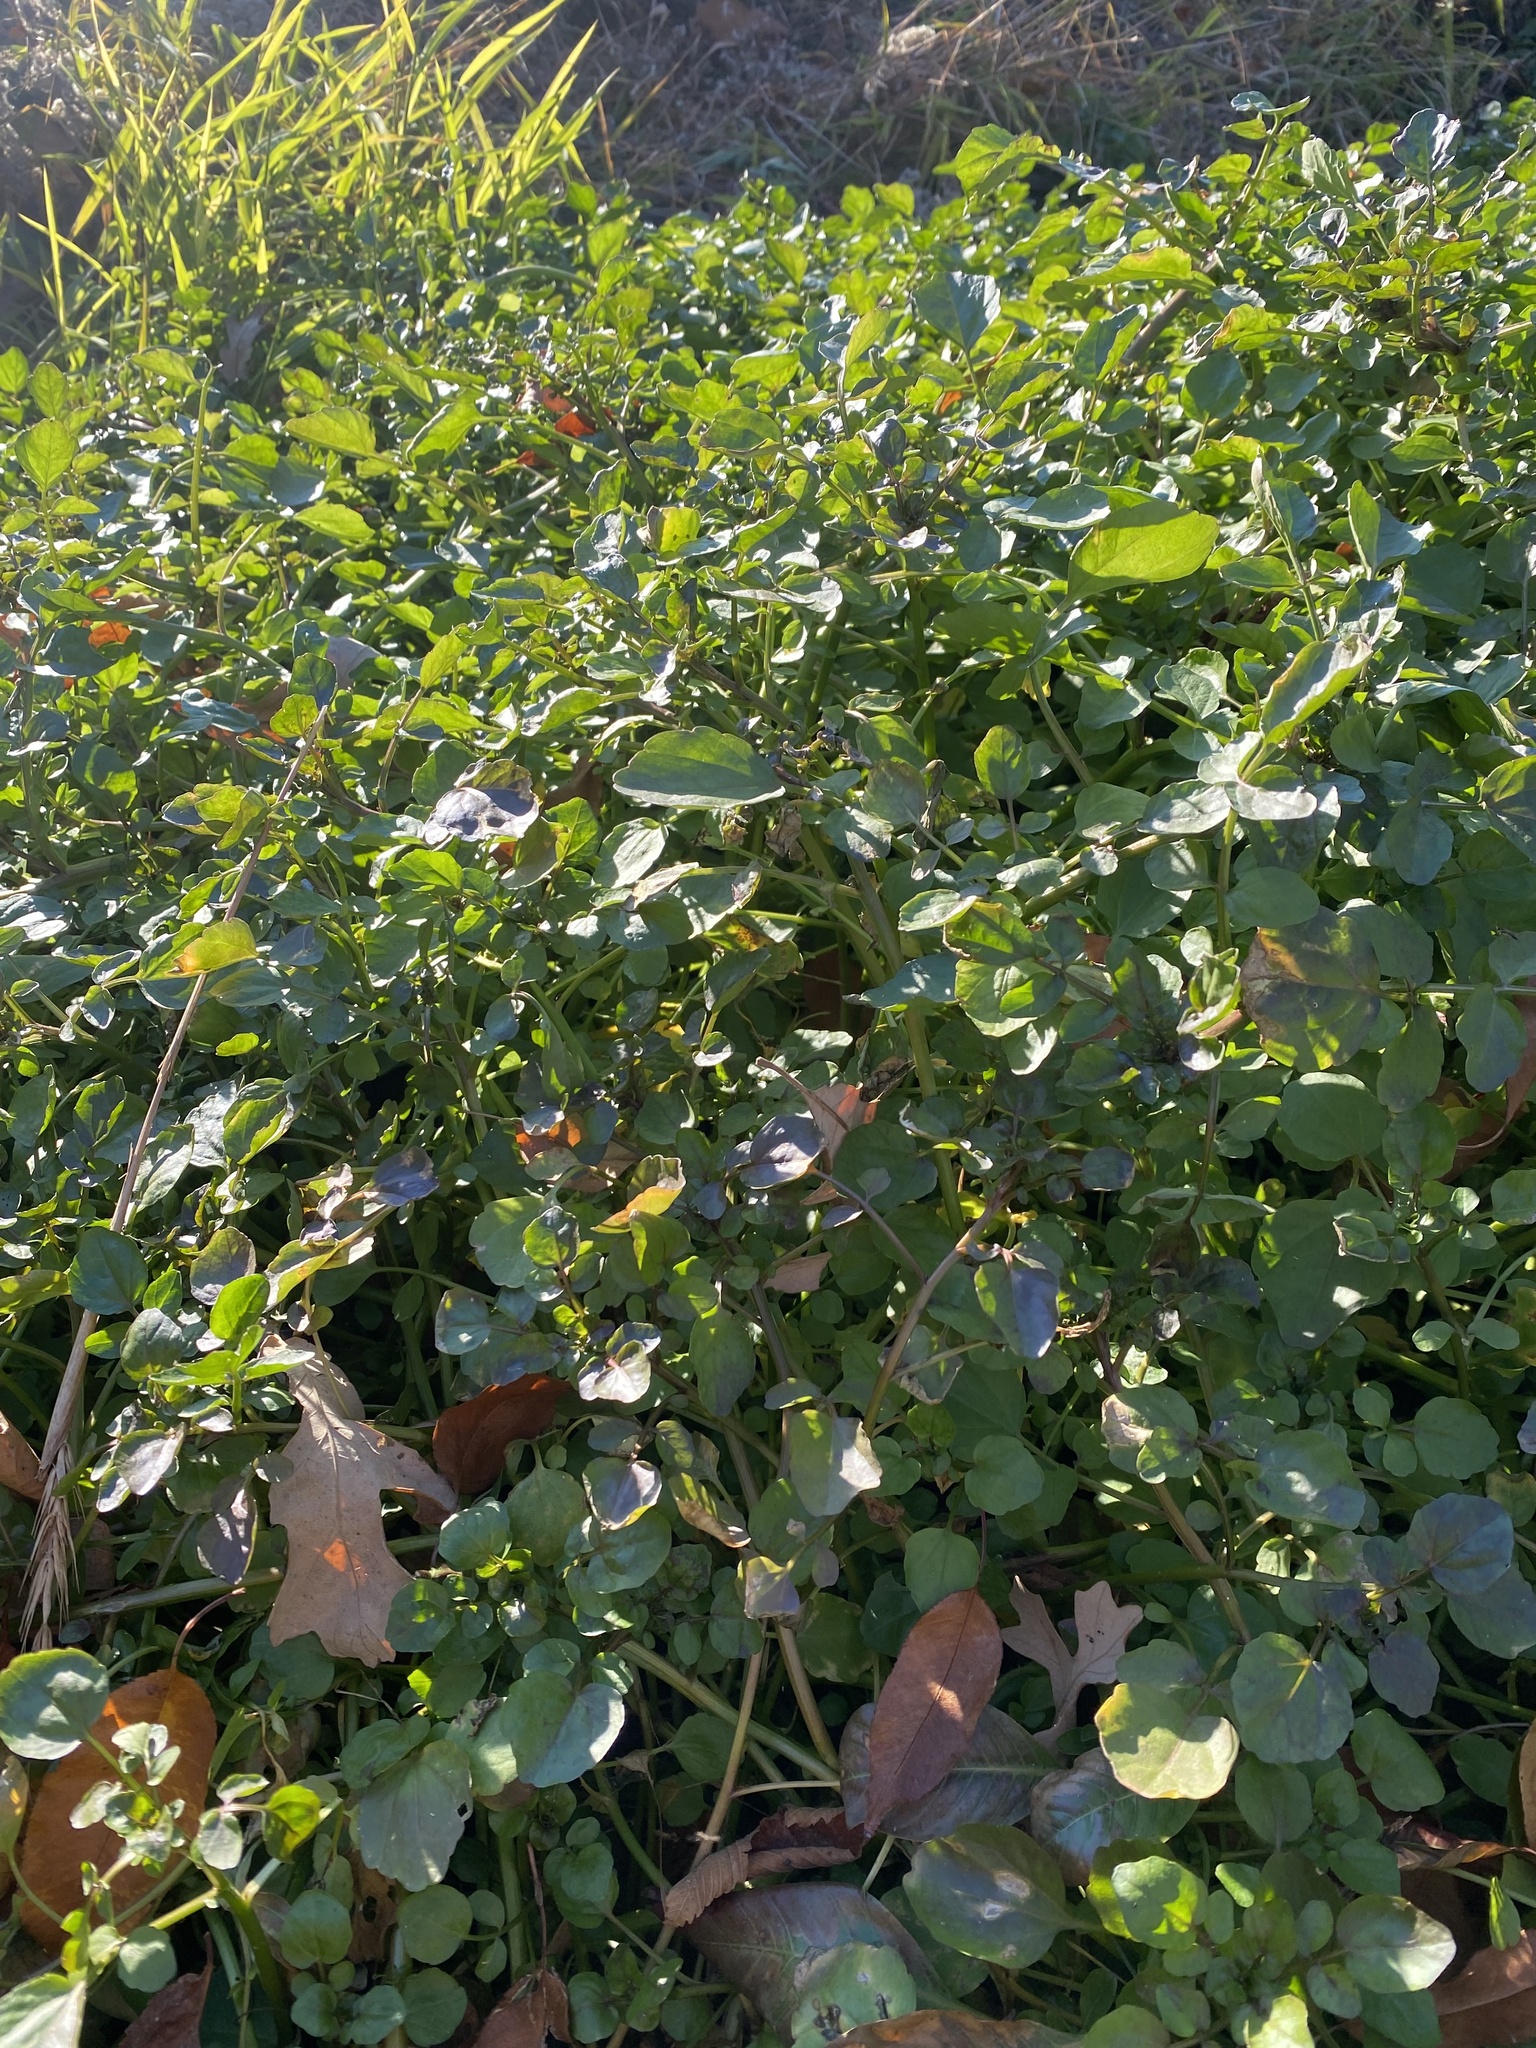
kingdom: Plantae
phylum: Tracheophyta
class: Magnoliopsida
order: Brassicales
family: Brassicaceae
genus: Nasturtium
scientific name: Nasturtium officinale
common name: Watercress
